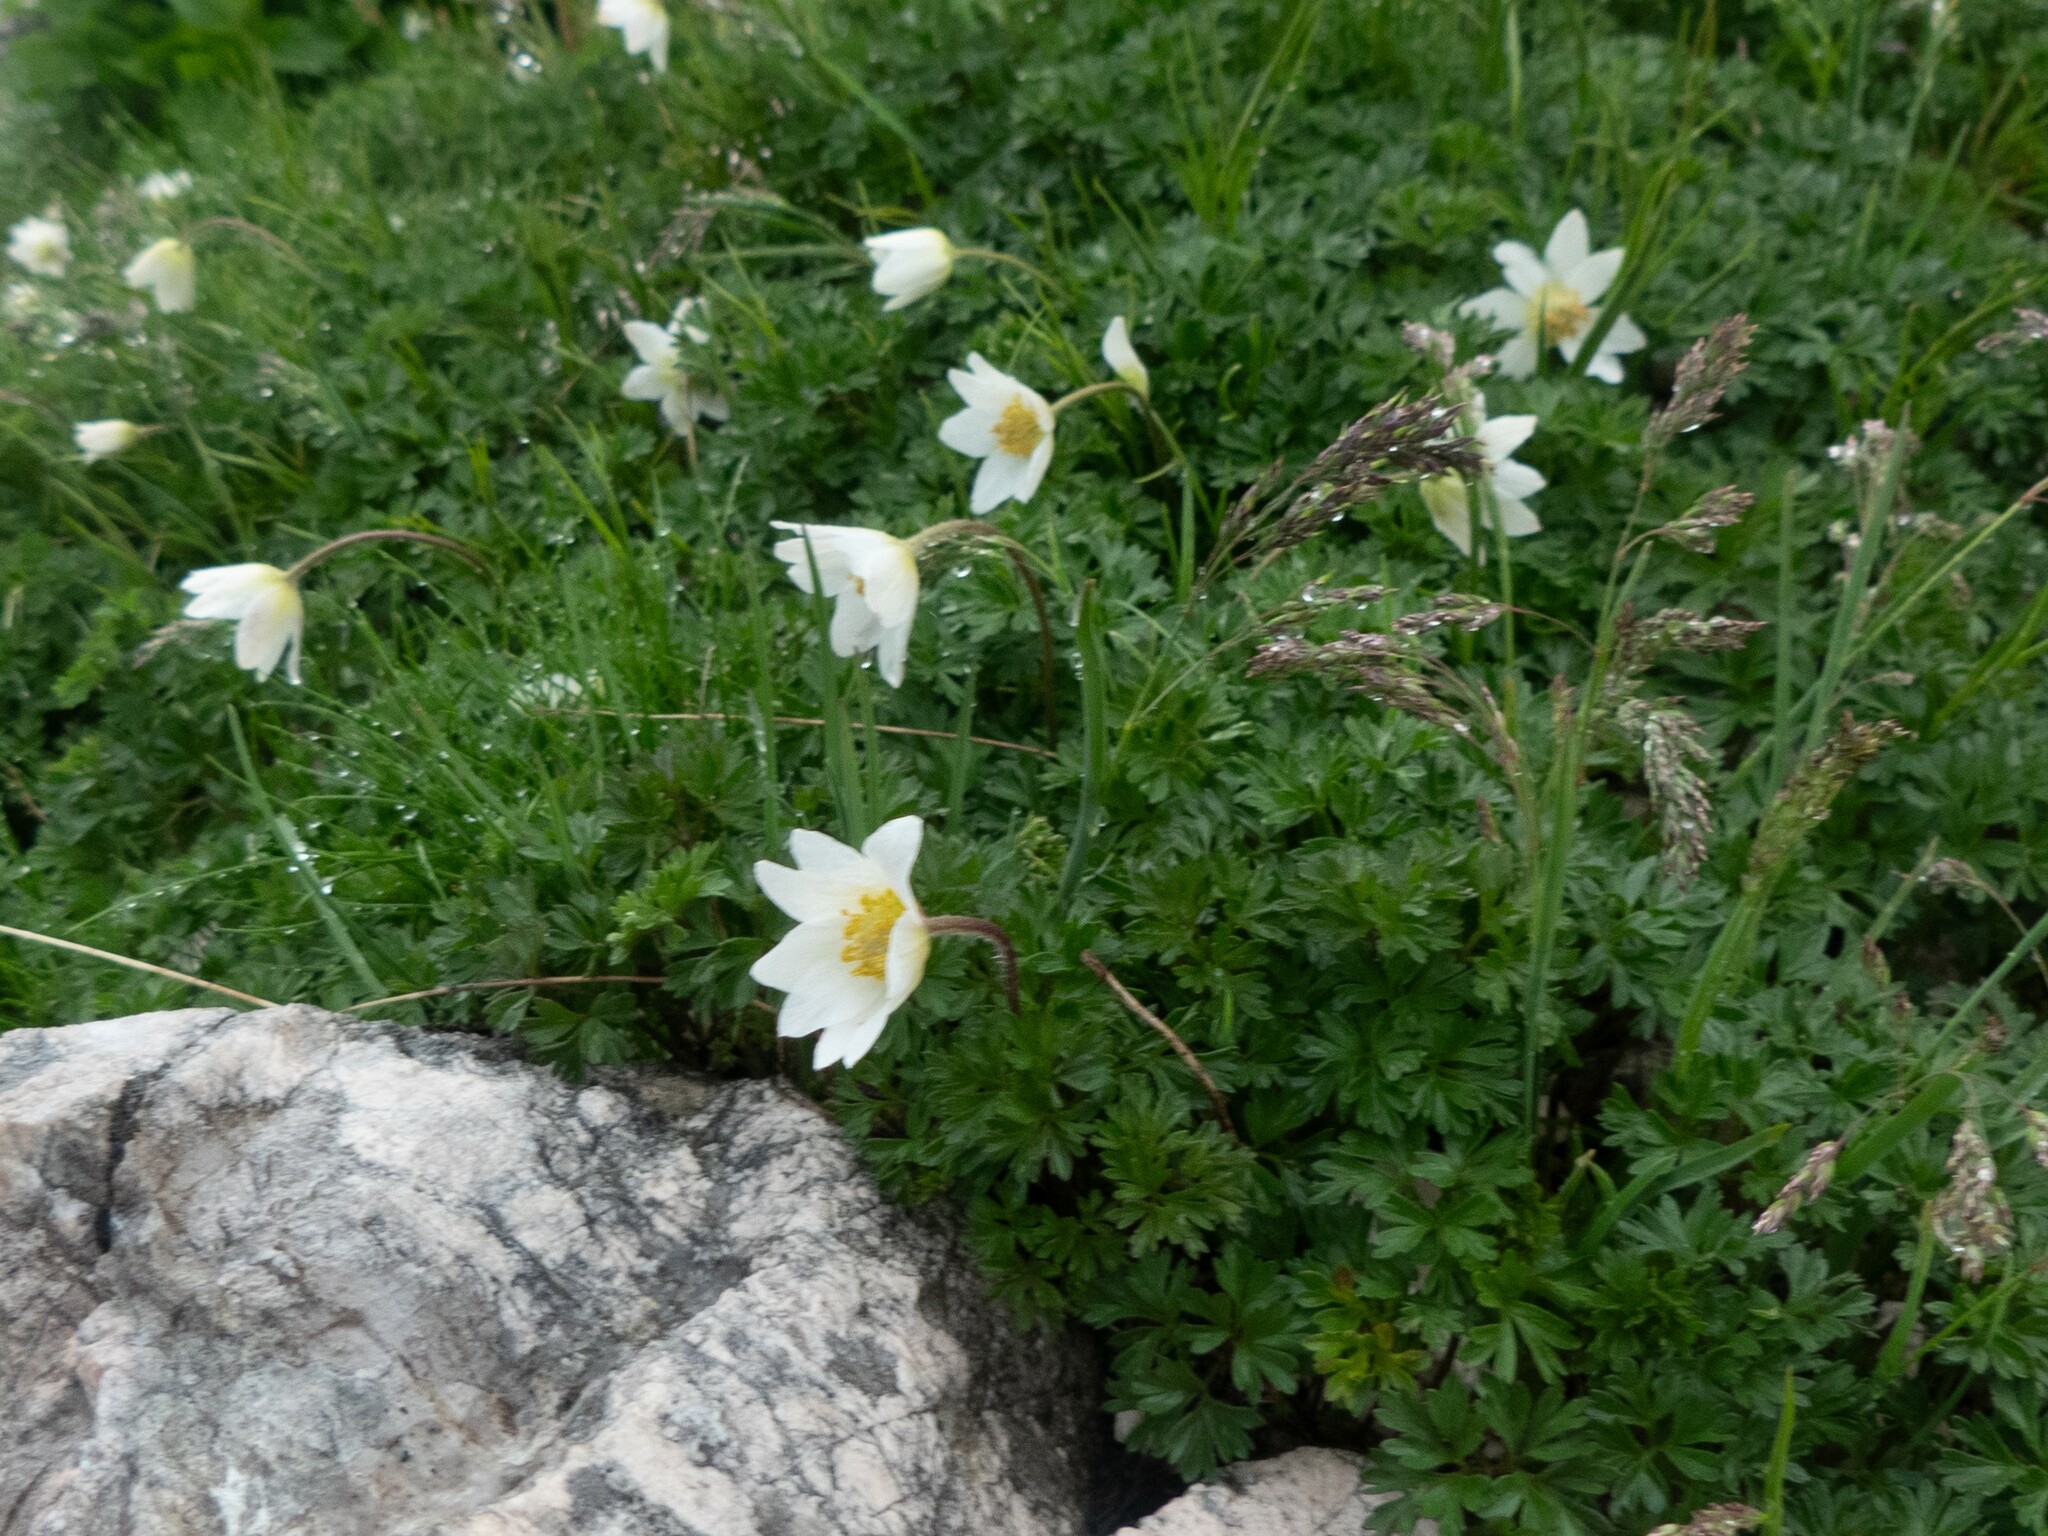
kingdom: Plantae
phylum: Tracheophyta
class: Magnoliopsida
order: Ranunculales
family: Ranunculaceae
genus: Pulsatilla
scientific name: Pulsatilla alpina
